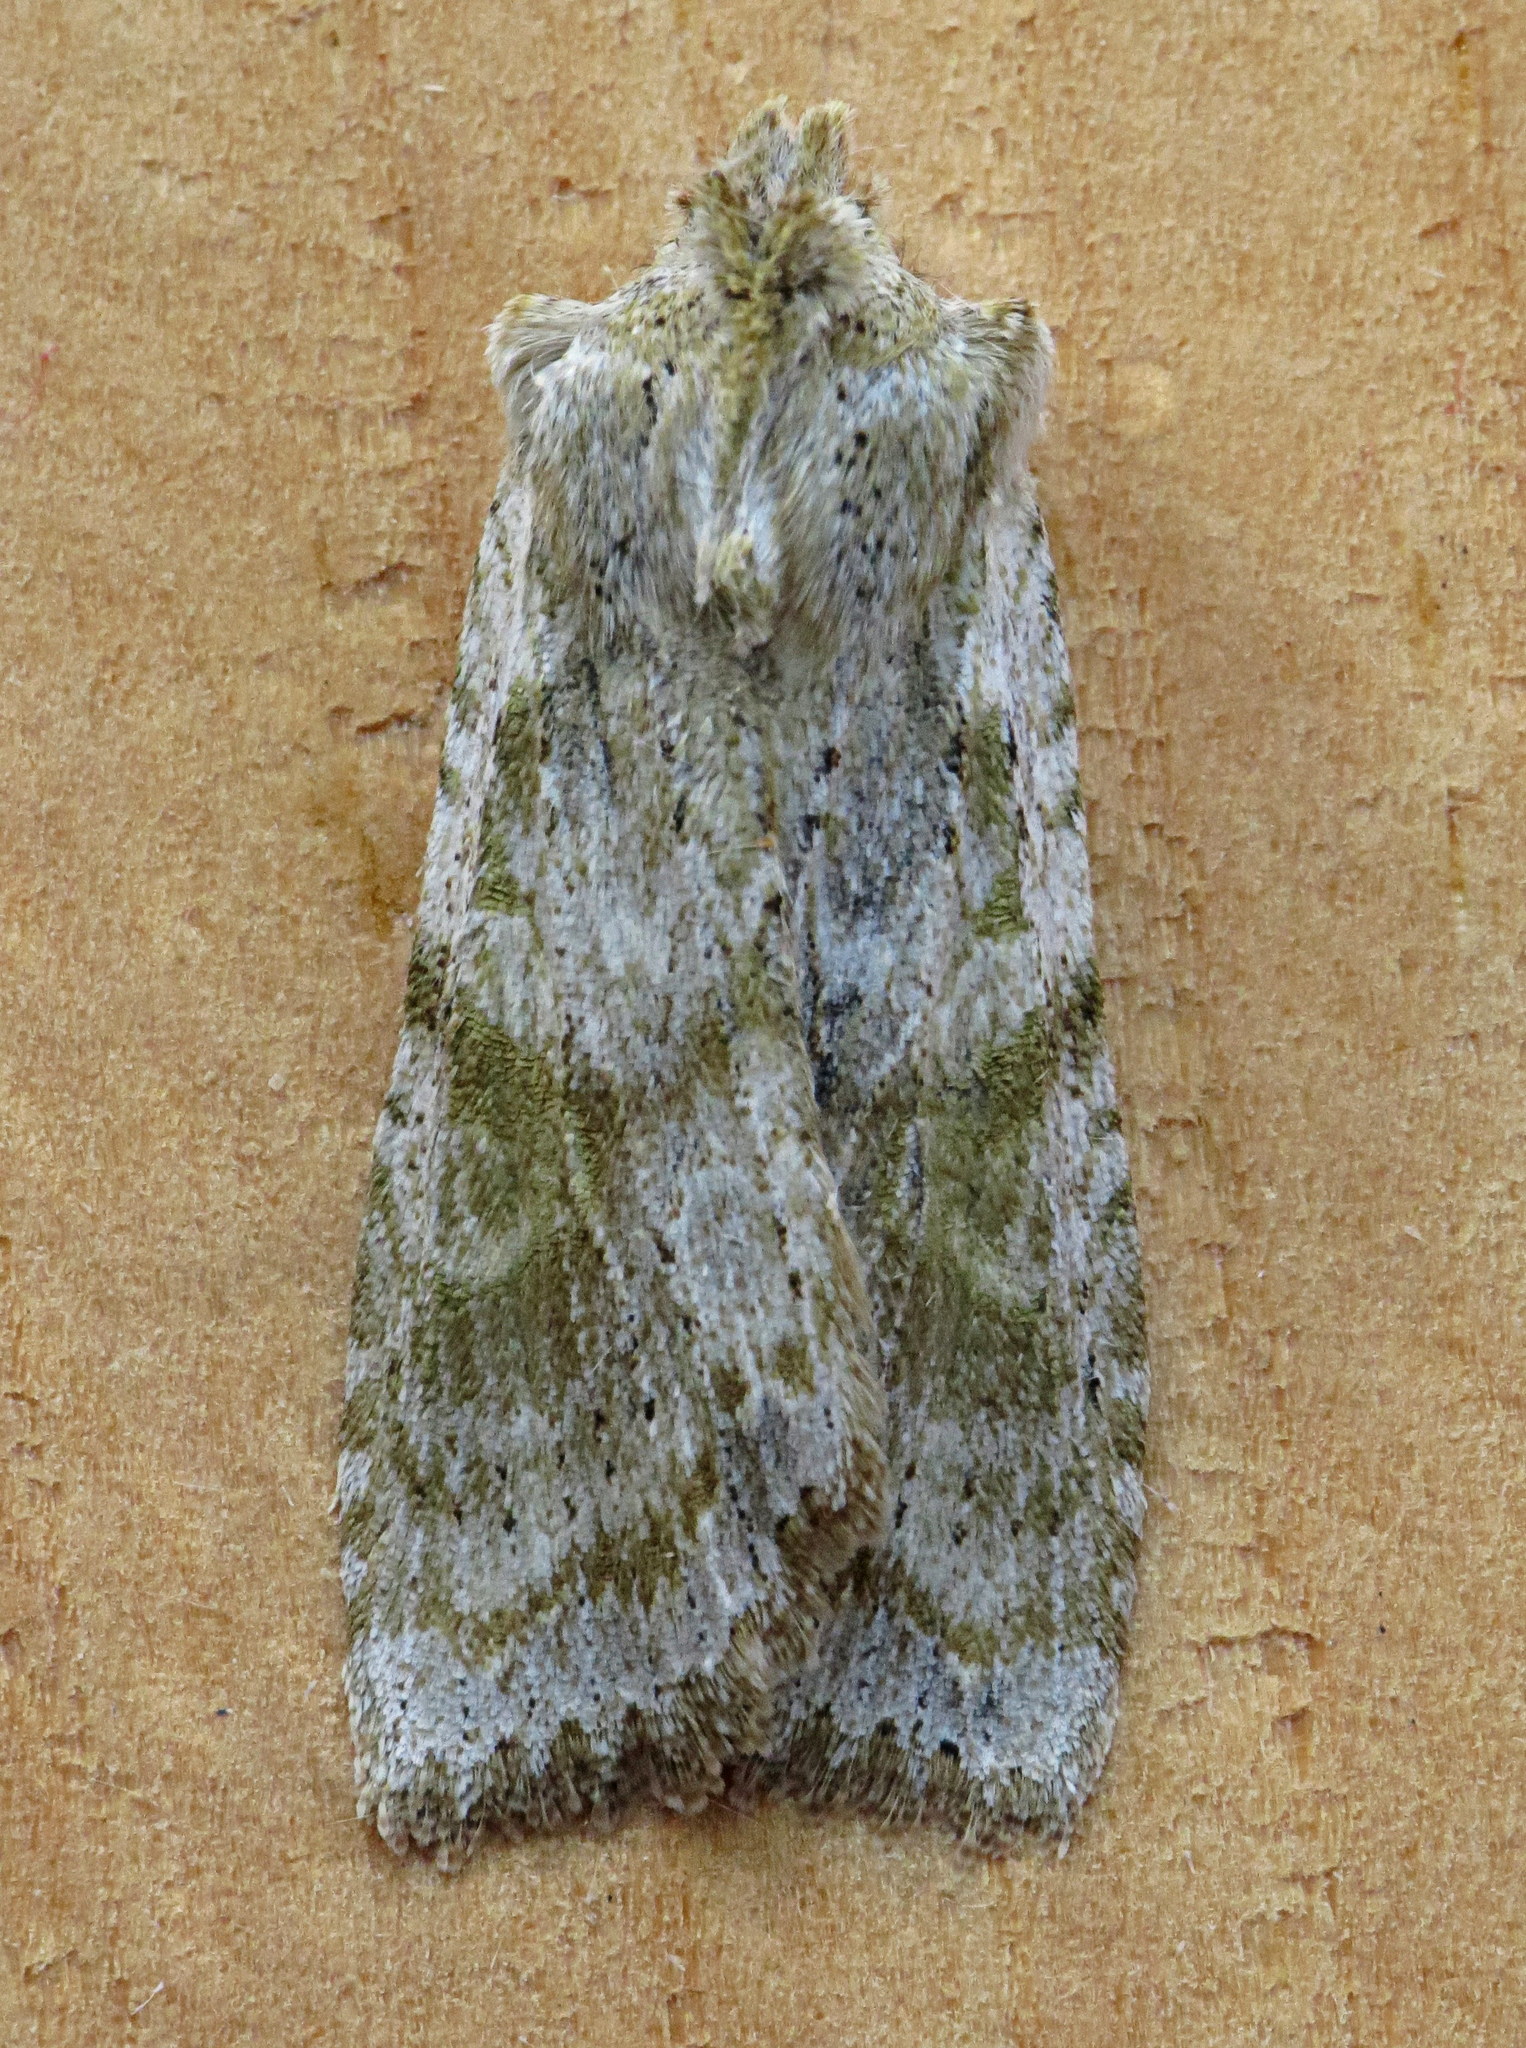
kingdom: Animalia
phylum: Arthropoda
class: Insecta
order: Lepidoptera
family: Noctuidae
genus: Lithophane
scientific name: Lithophane bethunei
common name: Bethune's pinion moth
